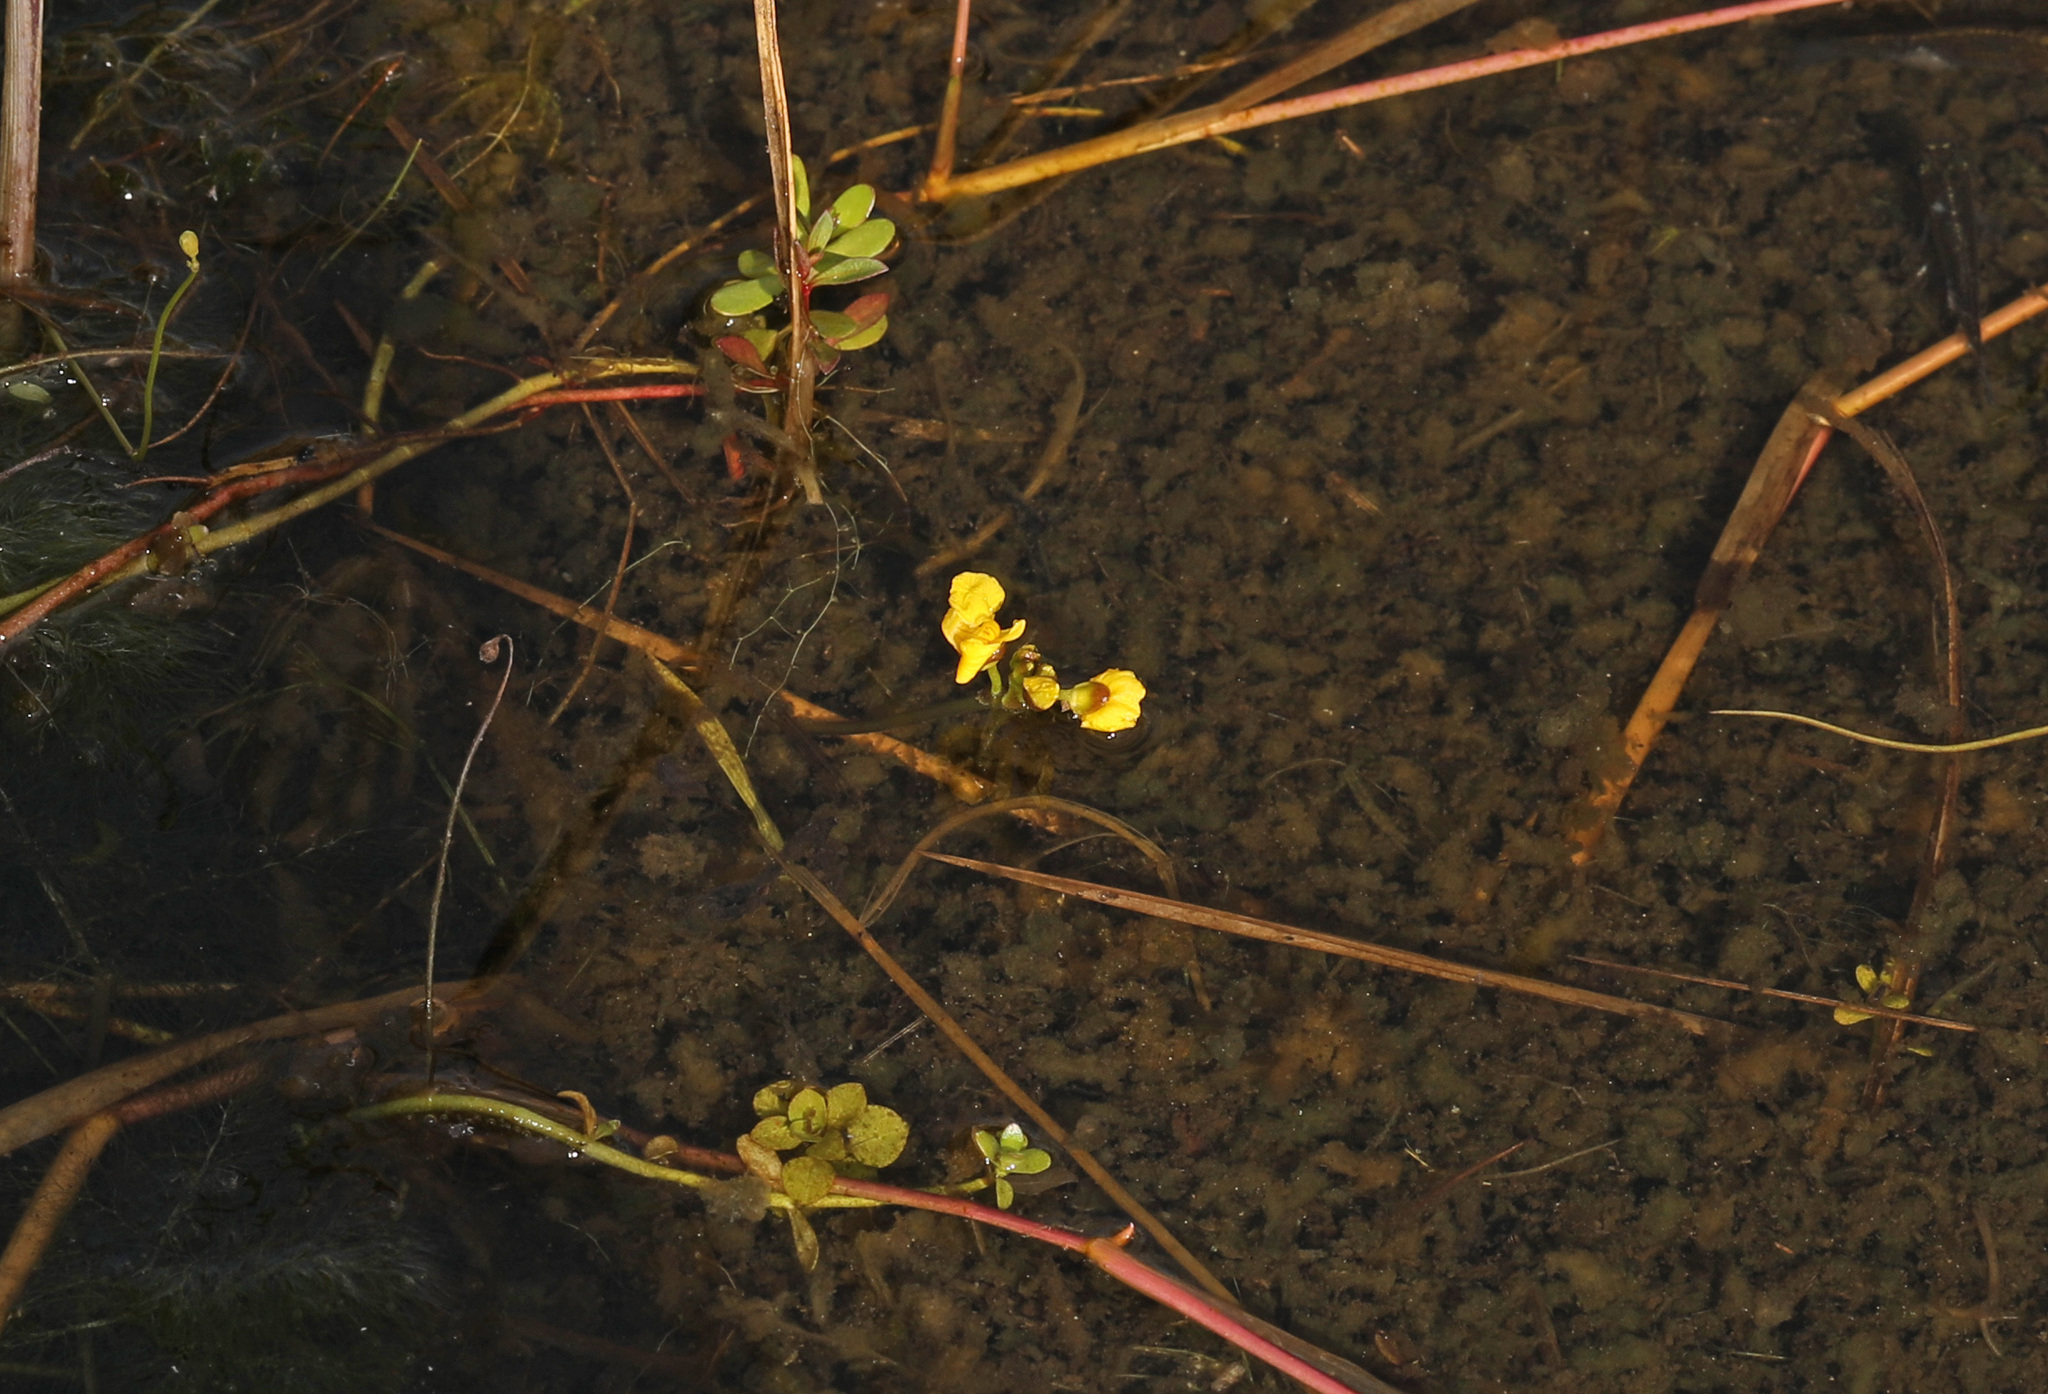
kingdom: Plantae
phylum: Tracheophyta
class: Magnoliopsida
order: Lamiales
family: Lentibulariaceae
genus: Utricularia
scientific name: Utricularia foliosa
